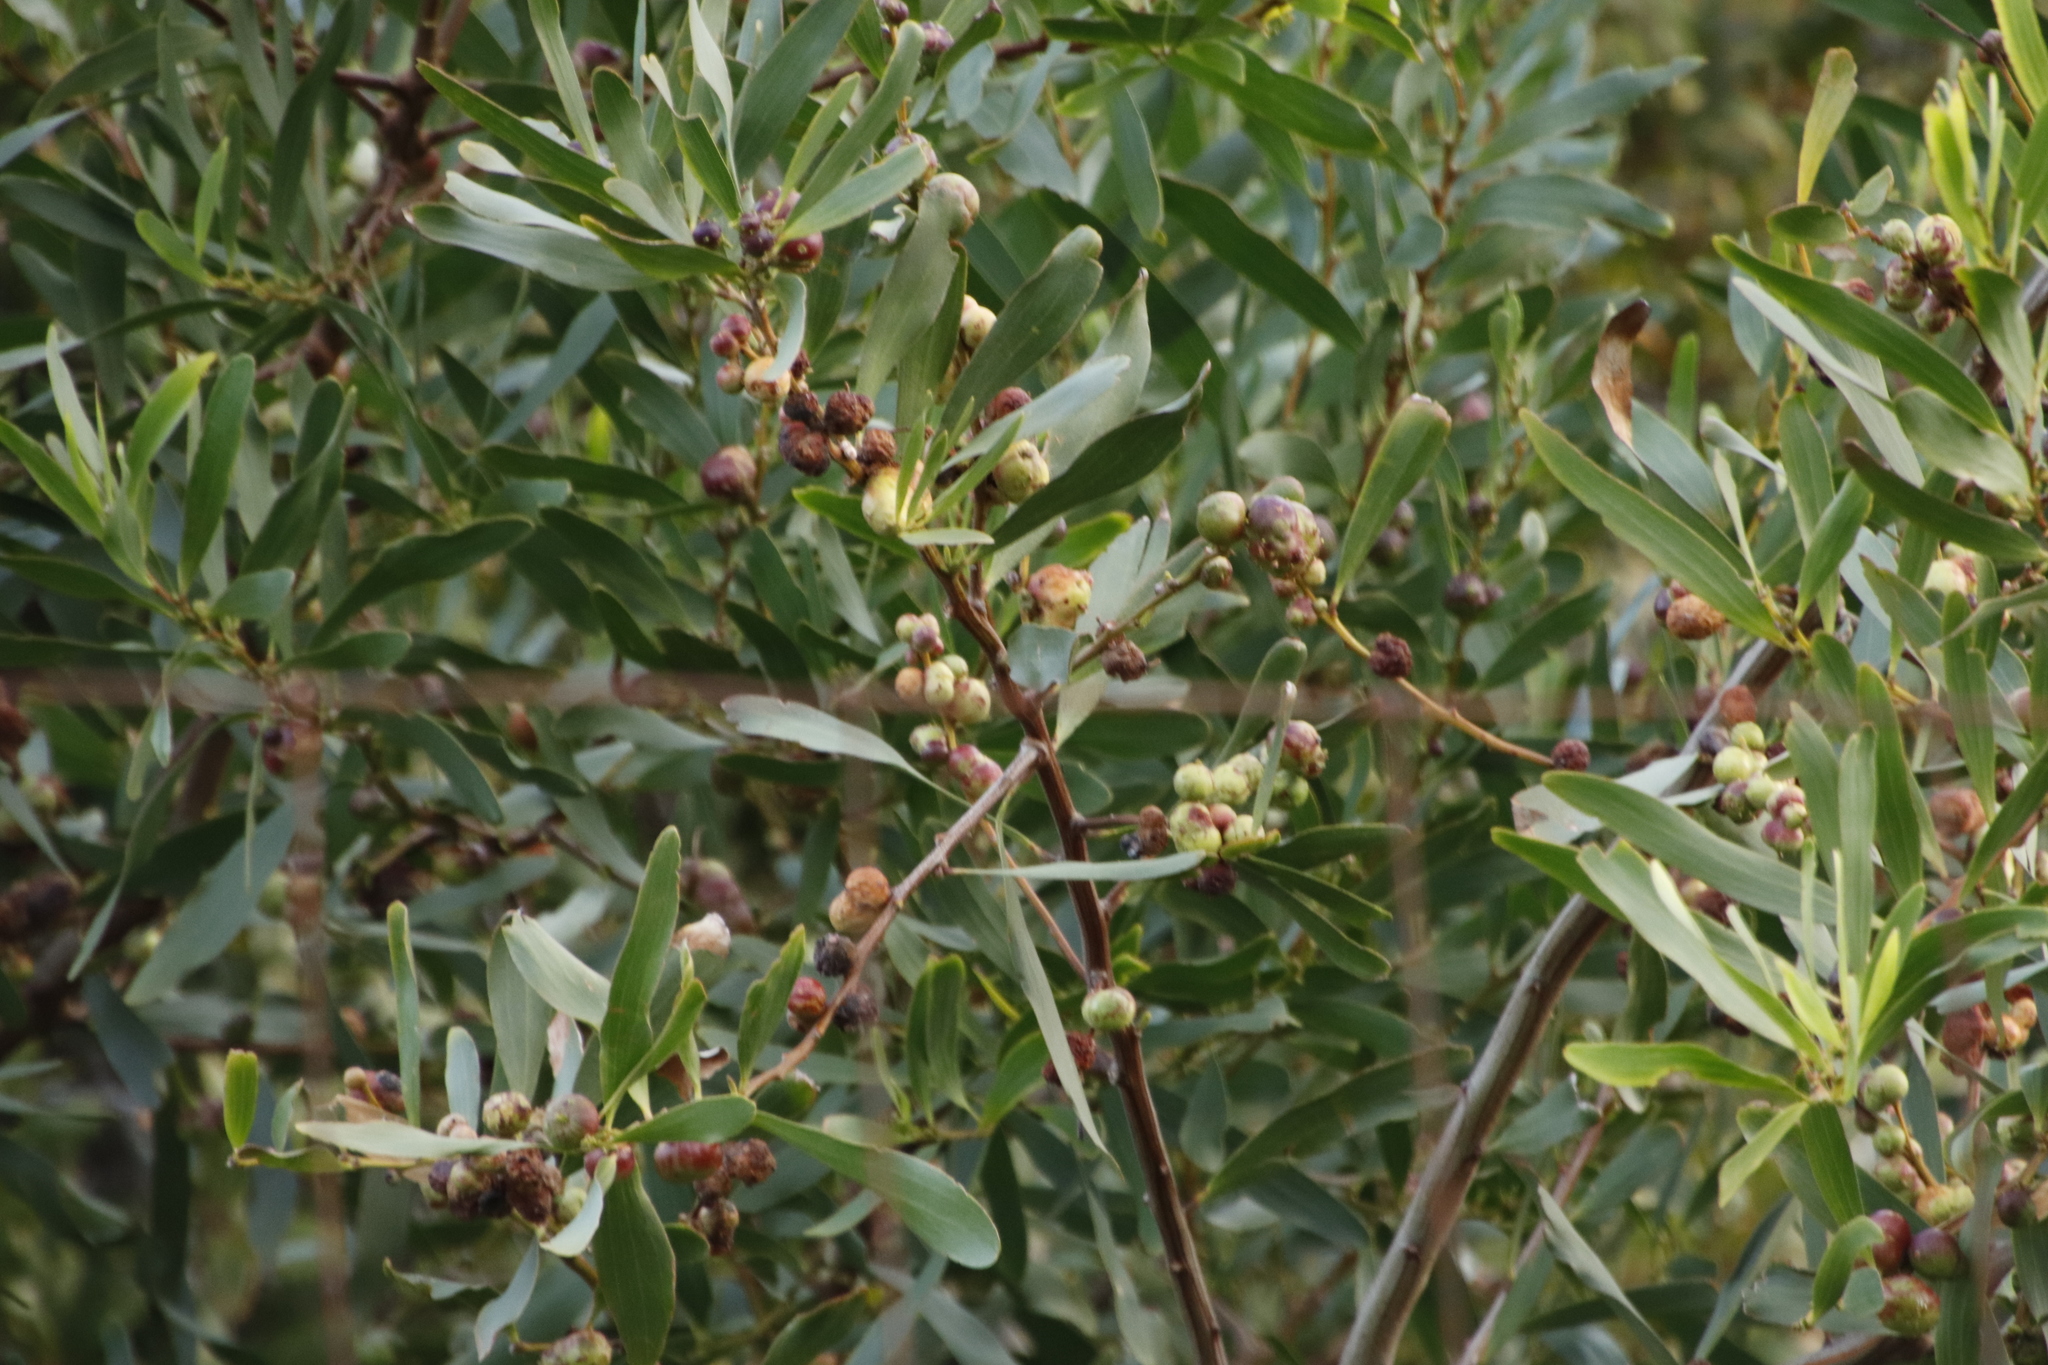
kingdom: Plantae
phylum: Tracheophyta
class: Magnoliopsida
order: Fabales
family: Fabaceae
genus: Acacia
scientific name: Acacia longifolia
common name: Sydney golden wattle
